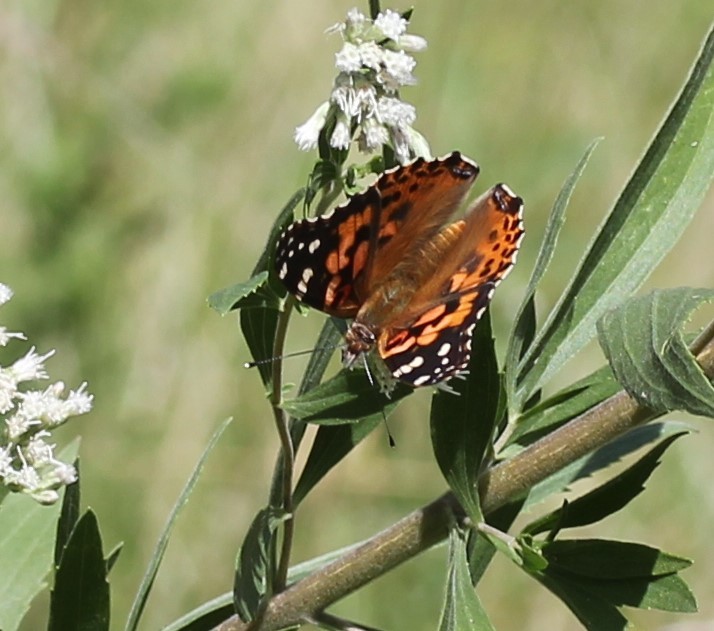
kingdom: Animalia
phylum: Arthropoda
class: Insecta
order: Lepidoptera
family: Nymphalidae
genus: Vanessa
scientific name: Vanessa cardui
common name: Painted lady
